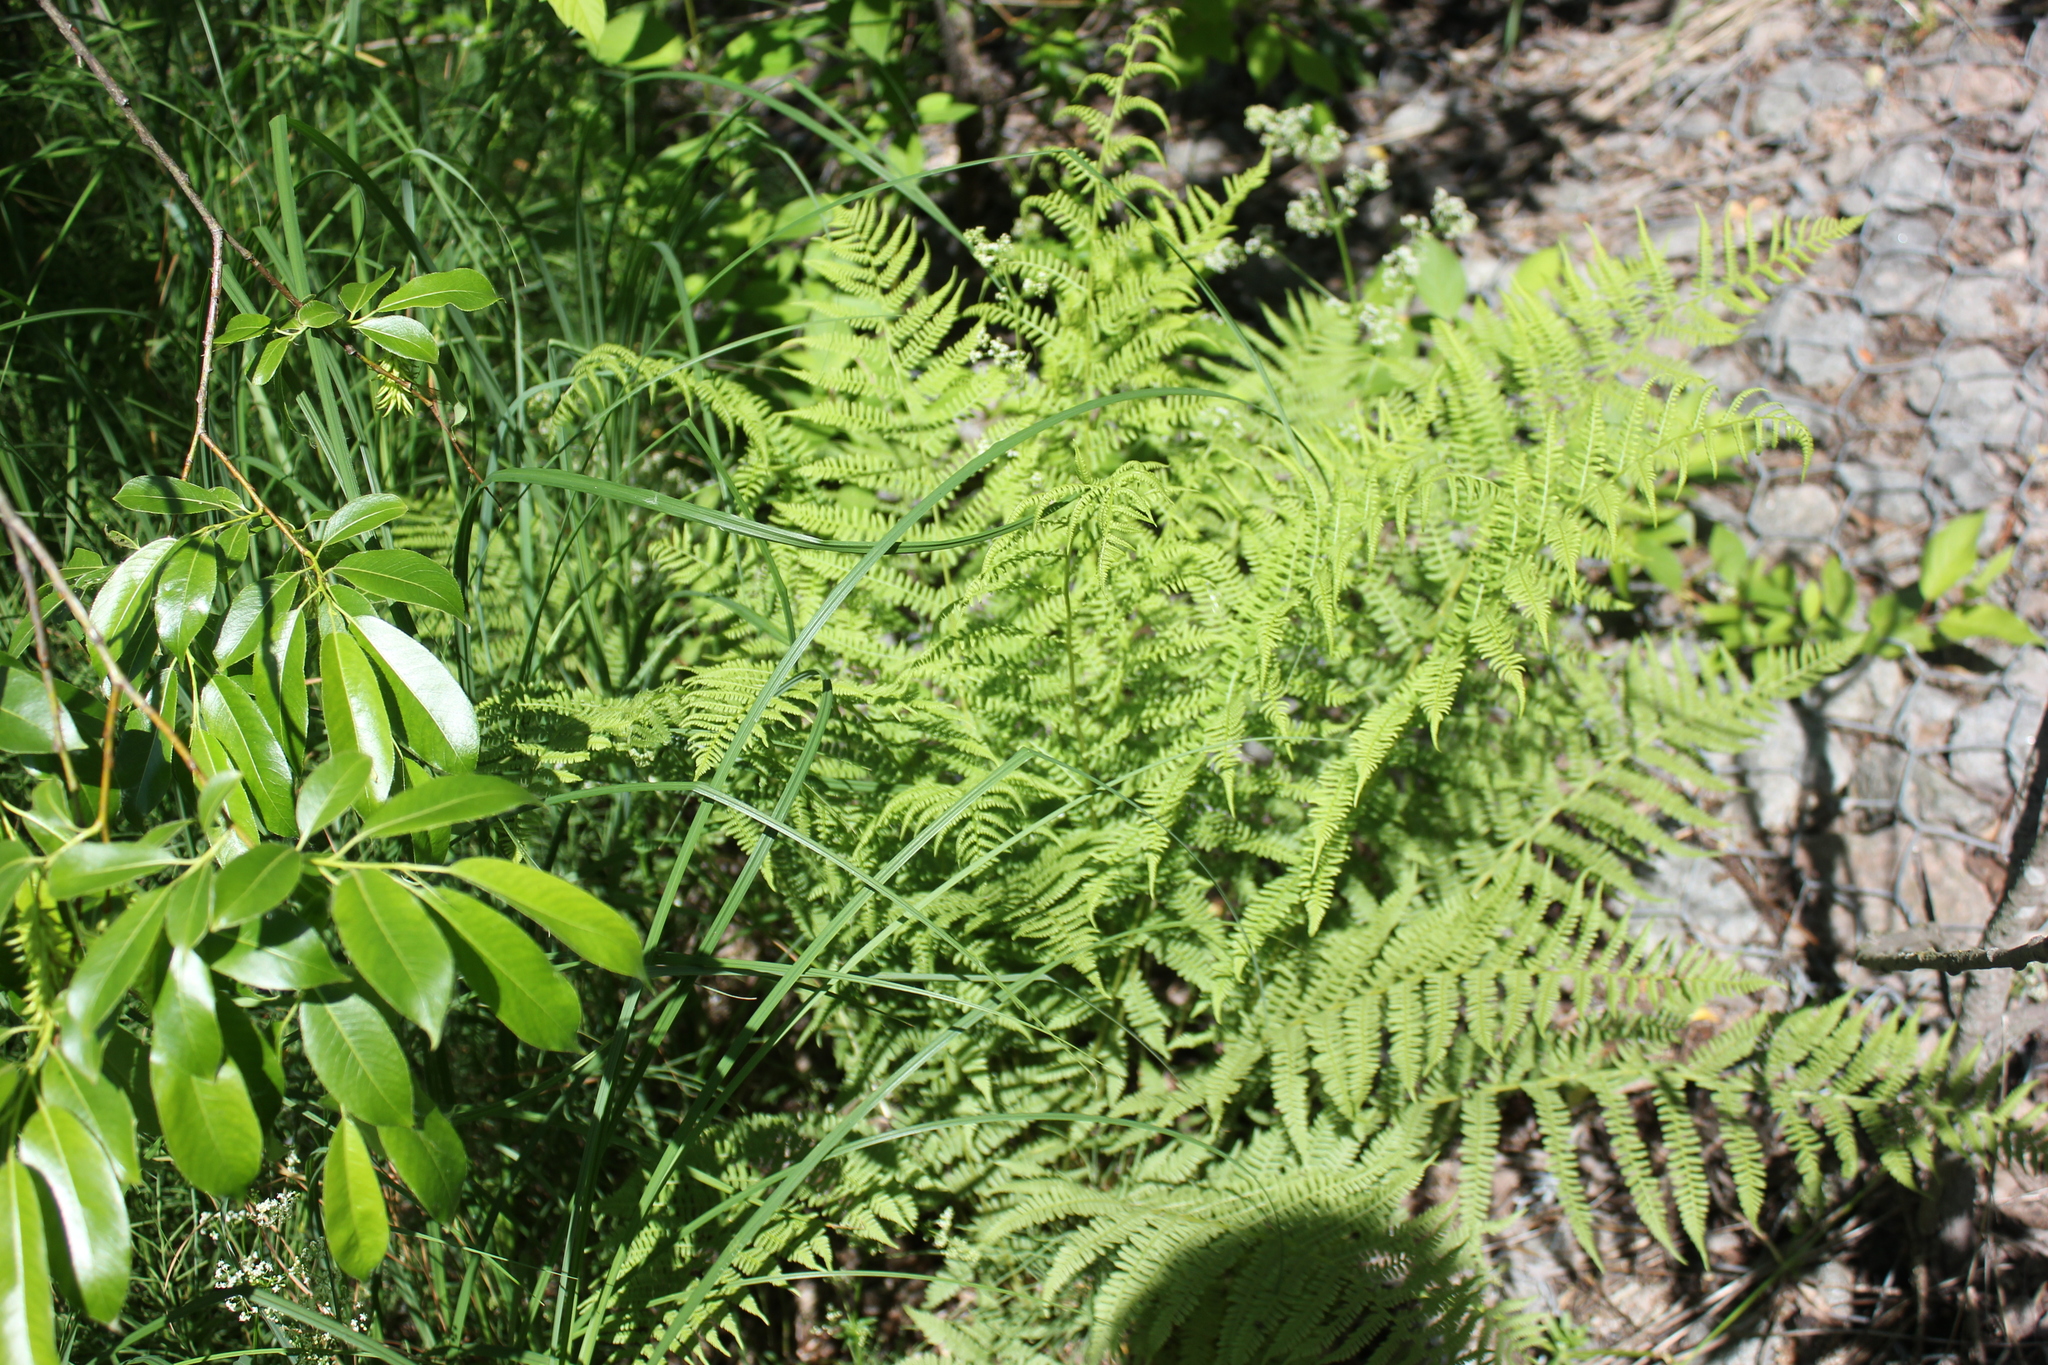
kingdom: Plantae
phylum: Tracheophyta
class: Polypodiopsida
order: Polypodiales
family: Athyriaceae
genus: Athyrium
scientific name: Athyrium filix-femina
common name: Lady fern
